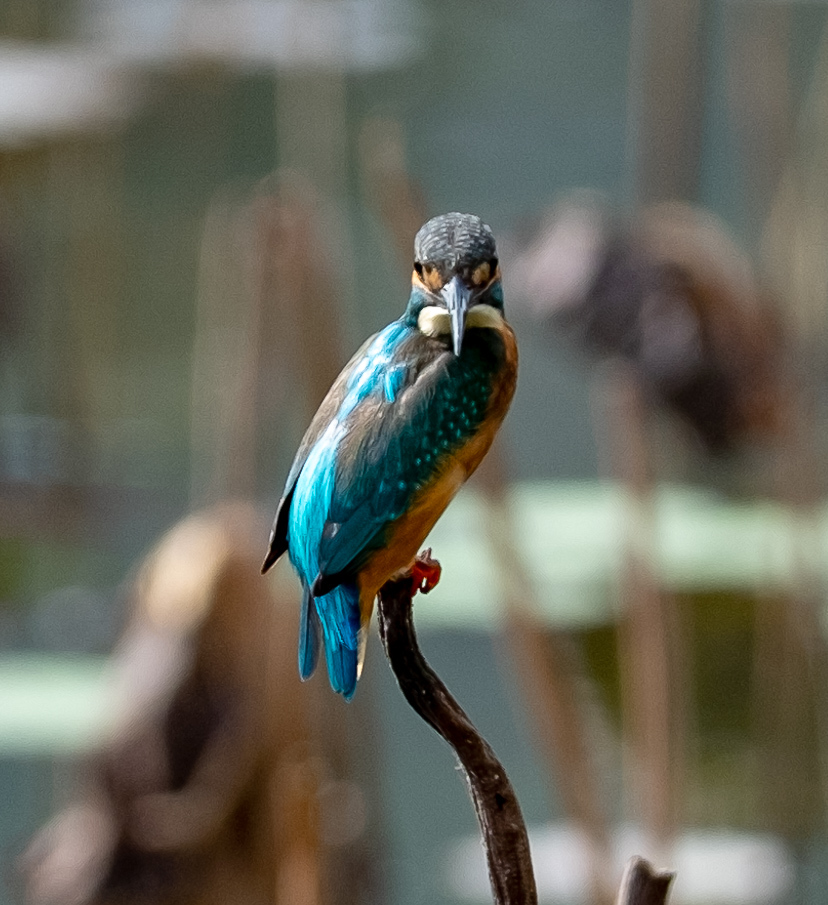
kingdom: Animalia
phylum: Chordata
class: Aves
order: Coraciiformes
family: Alcedinidae
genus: Alcedo
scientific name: Alcedo atthis
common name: Common kingfisher
